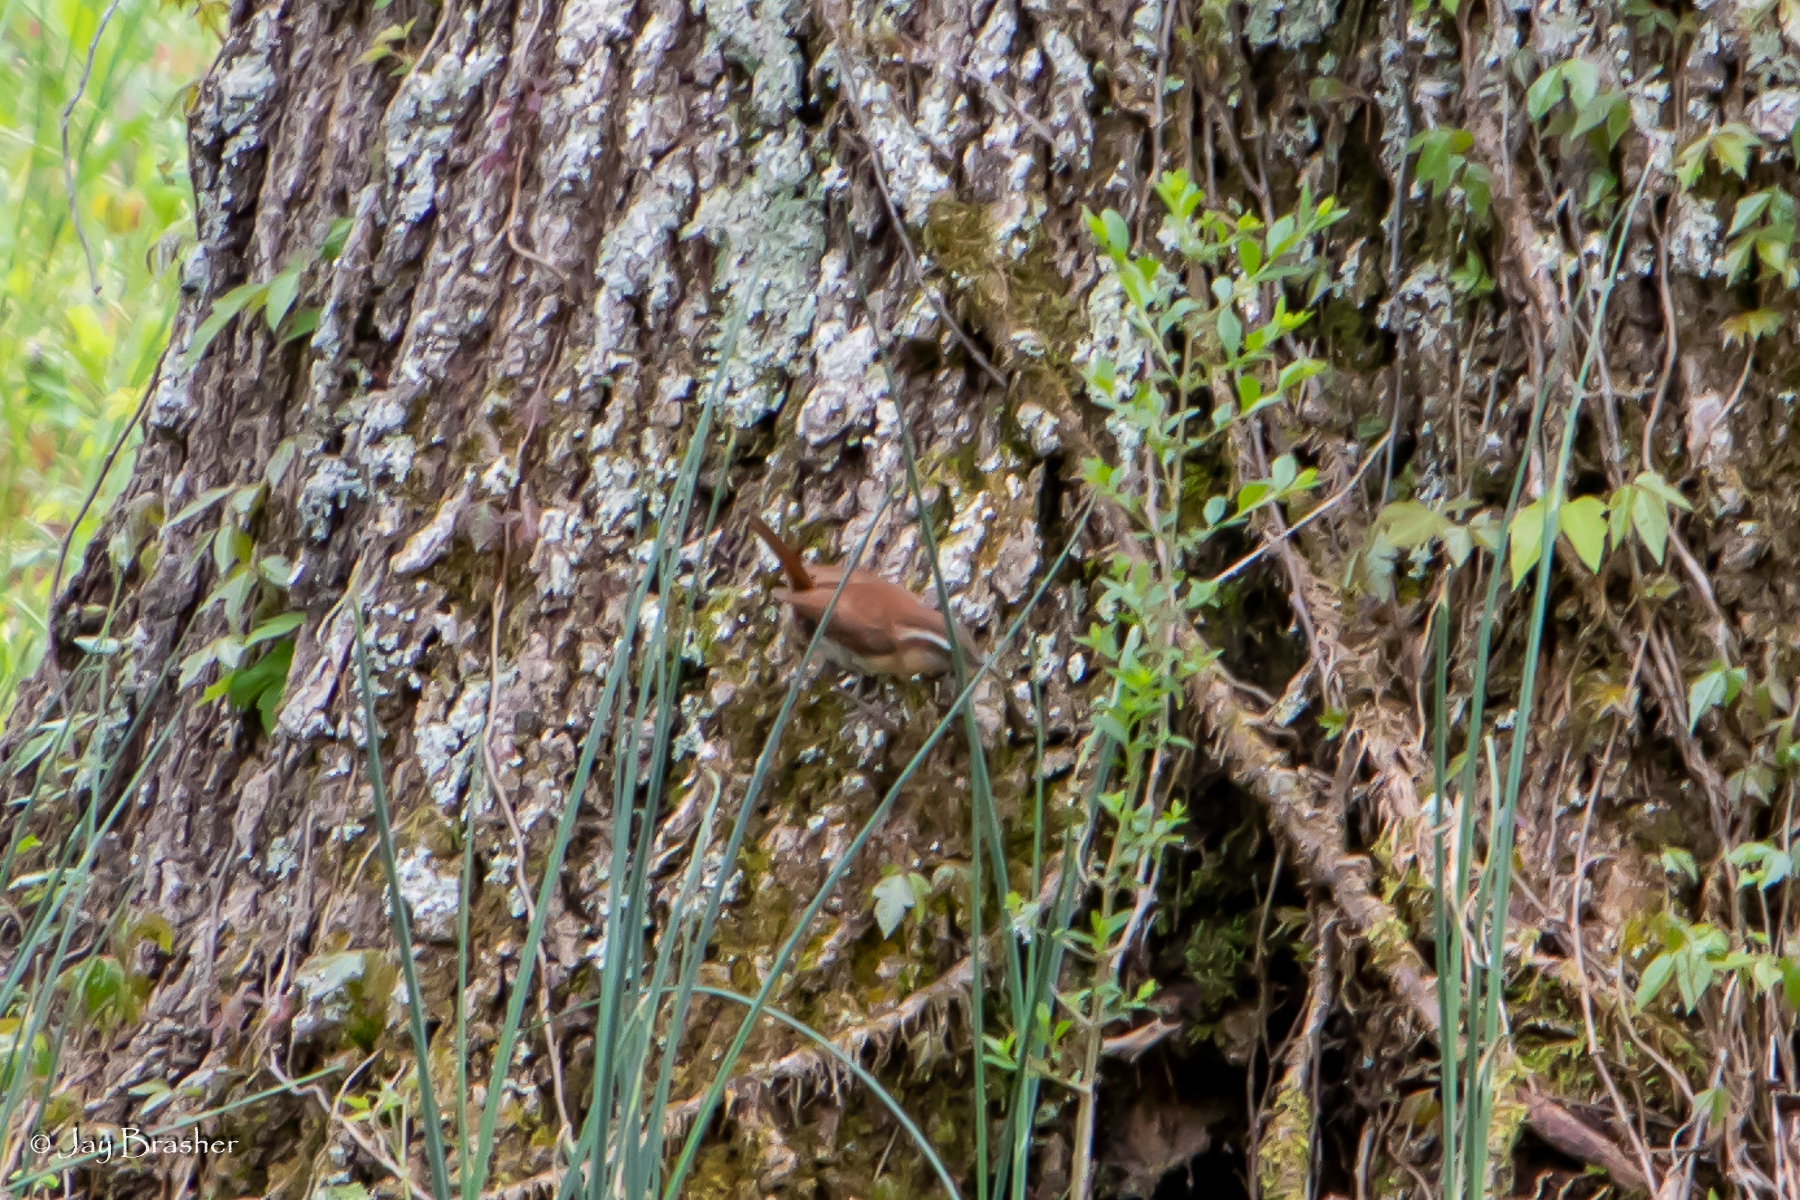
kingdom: Animalia
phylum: Chordata
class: Aves
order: Passeriformes
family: Troglodytidae
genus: Thryothorus
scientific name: Thryothorus ludovicianus
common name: Carolina wren
